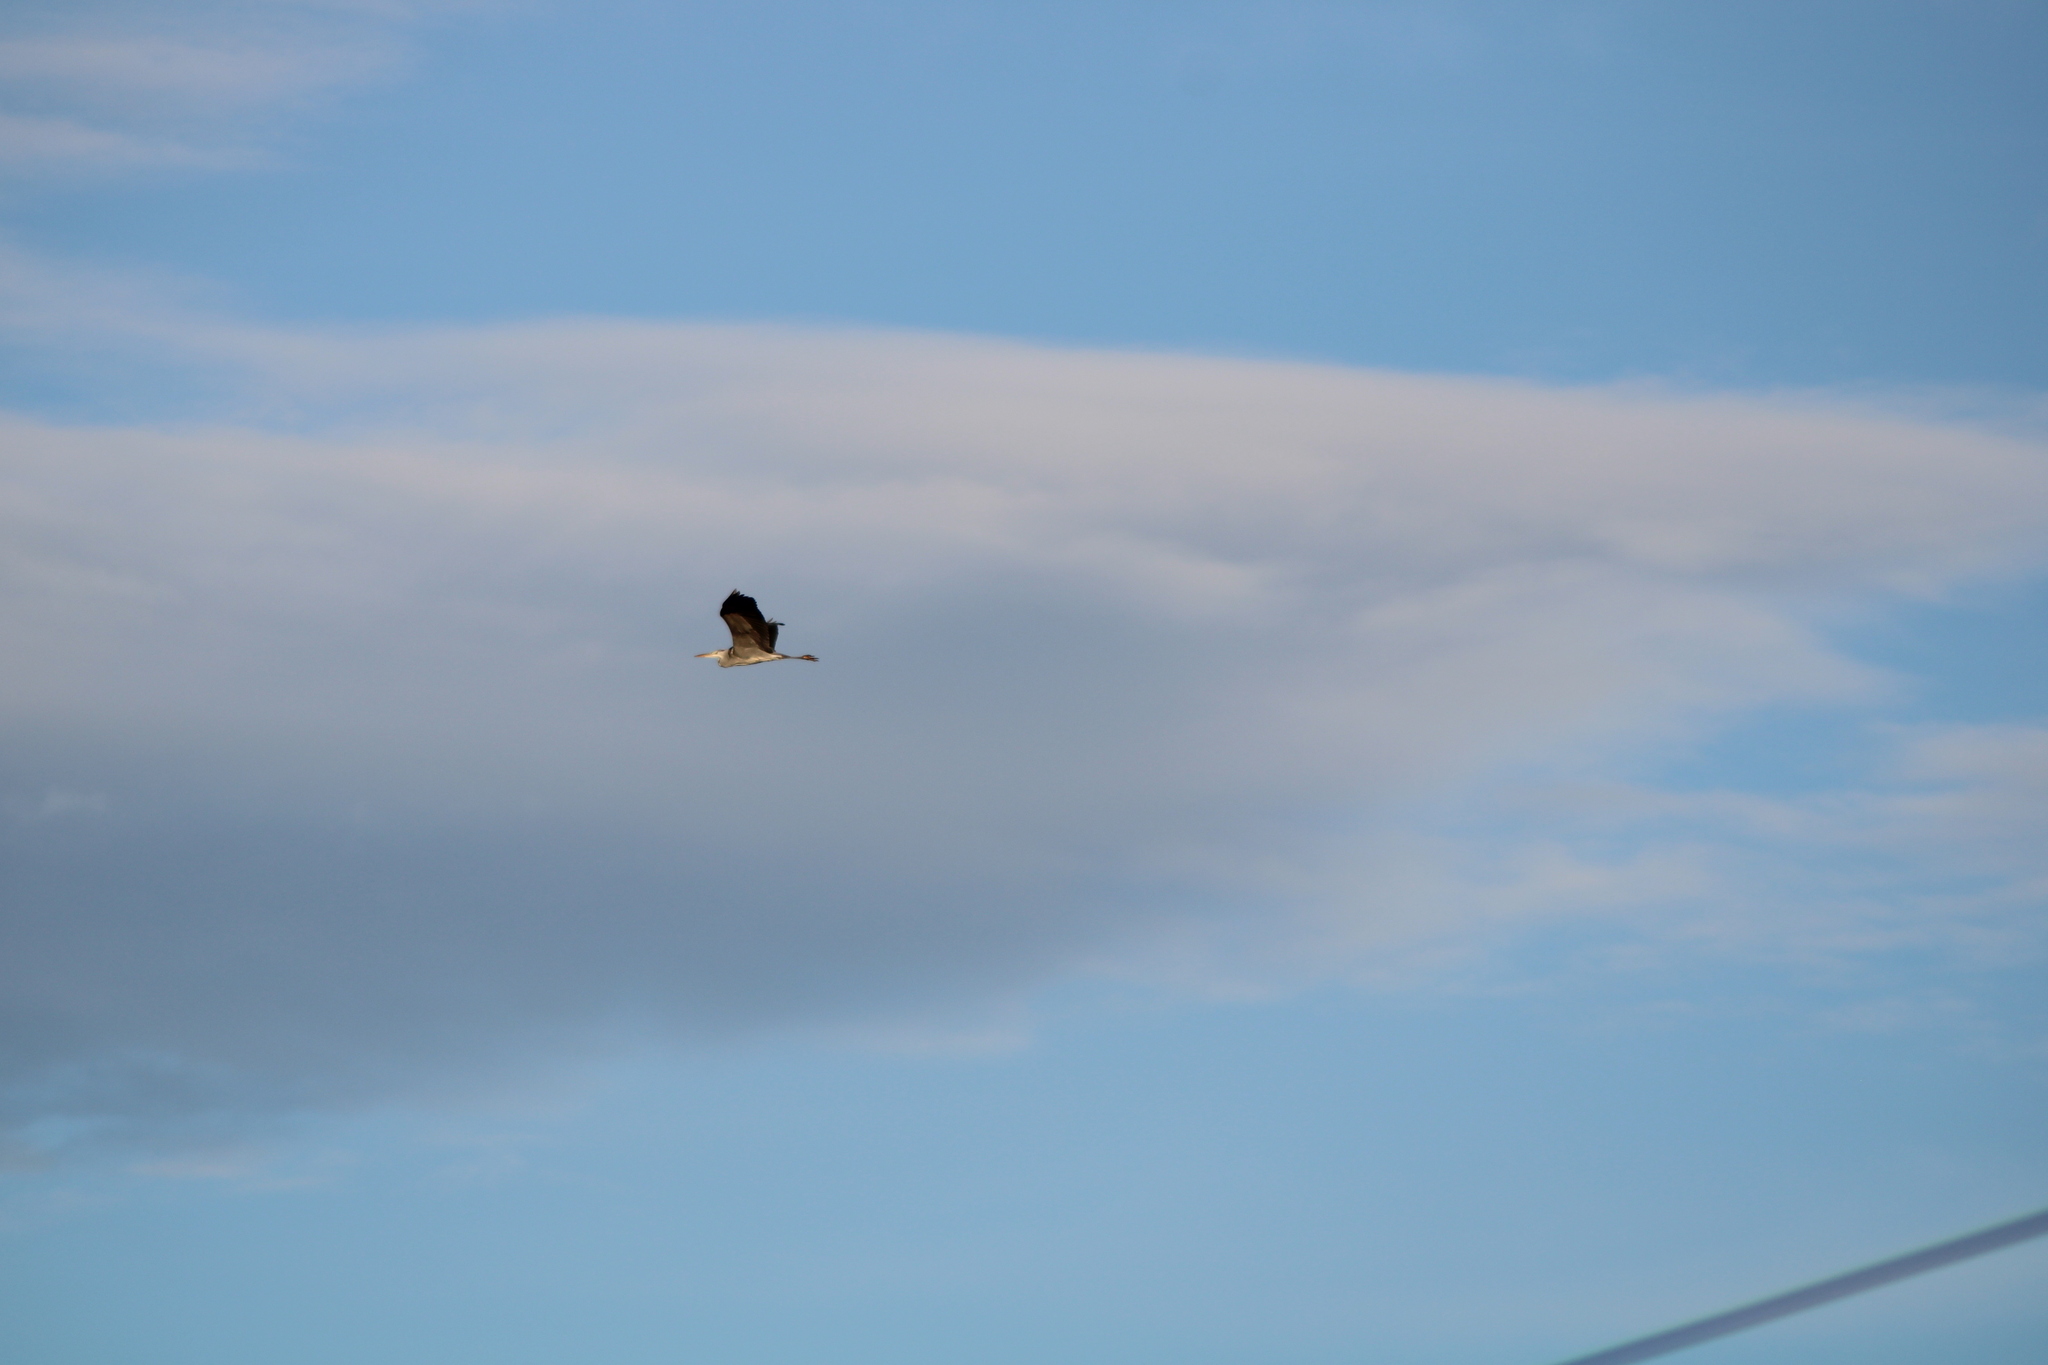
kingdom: Animalia
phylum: Chordata
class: Aves
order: Pelecaniformes
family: Ardeidae
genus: Ardea
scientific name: Ardea cinerea
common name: Grey heron
